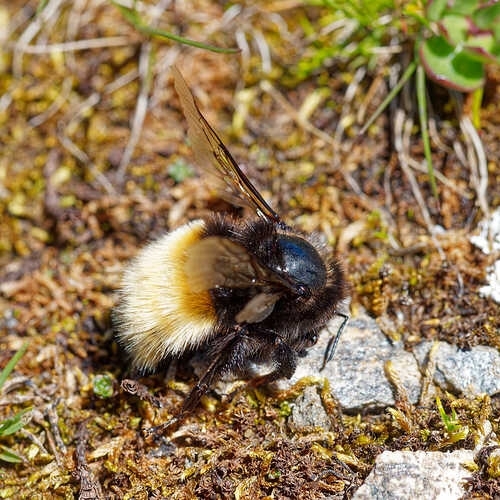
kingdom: Animalia
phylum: Arthropoda
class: Insecta
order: Hymenoptera
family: Apidae
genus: Bombus
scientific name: Bombus alpinus
